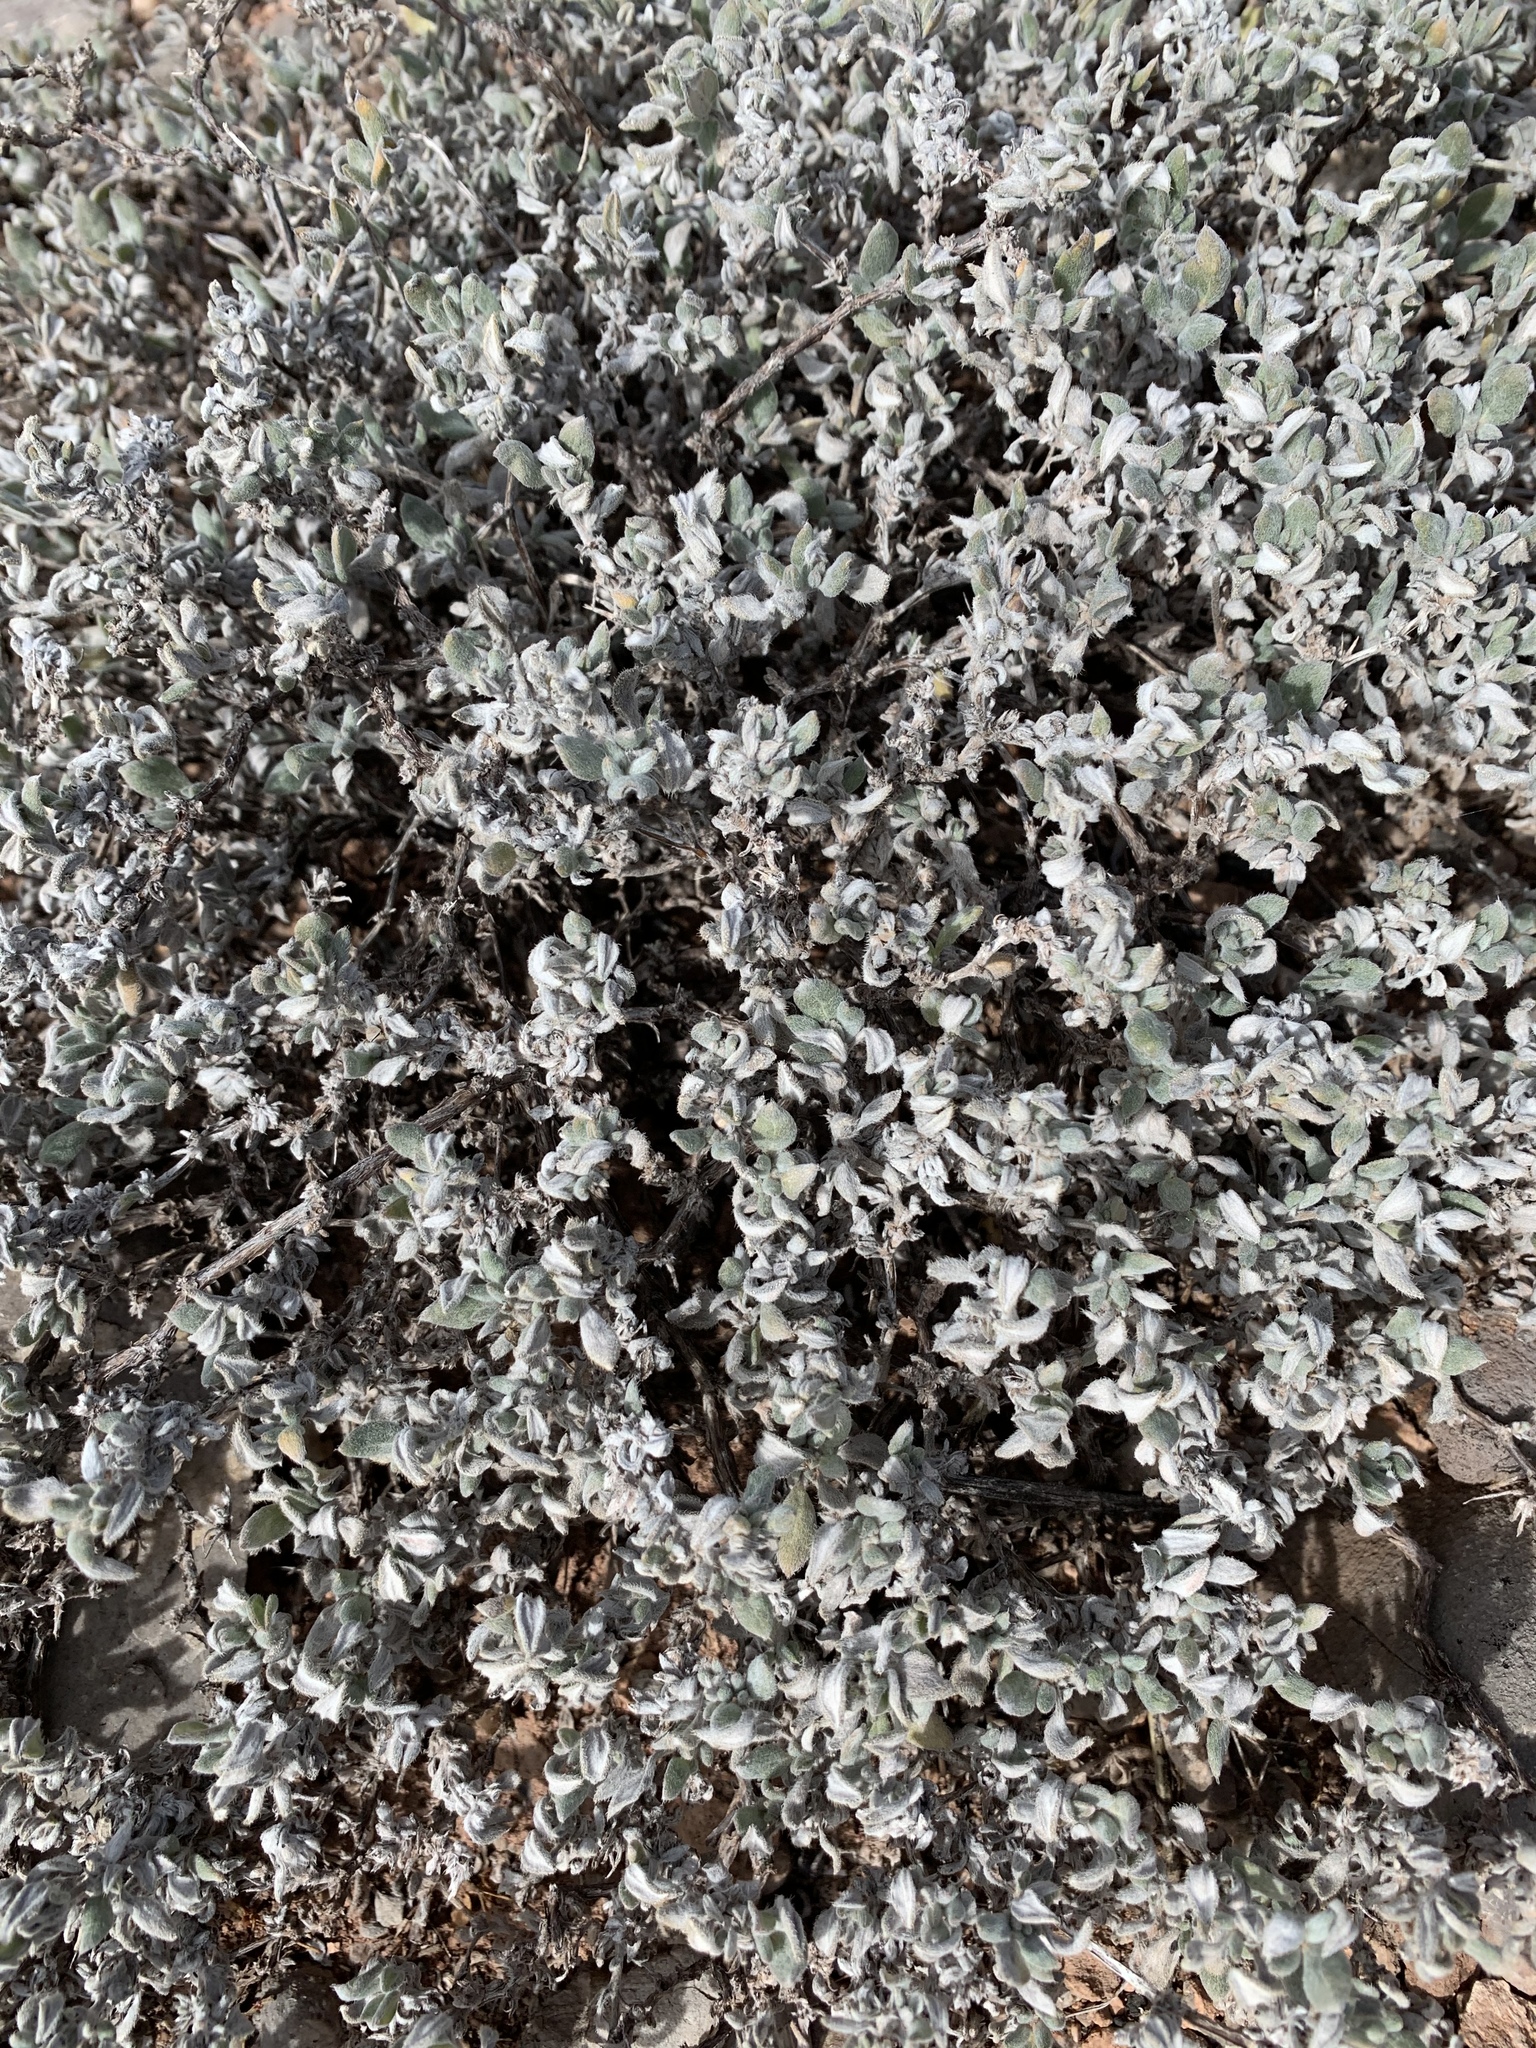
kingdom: Plantae
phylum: Tracheophyta
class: Magnoliopsida
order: Boraginales
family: Ehretiaceae
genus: Tiquilia
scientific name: Tiquilia canescens
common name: Hairy tiquilia
